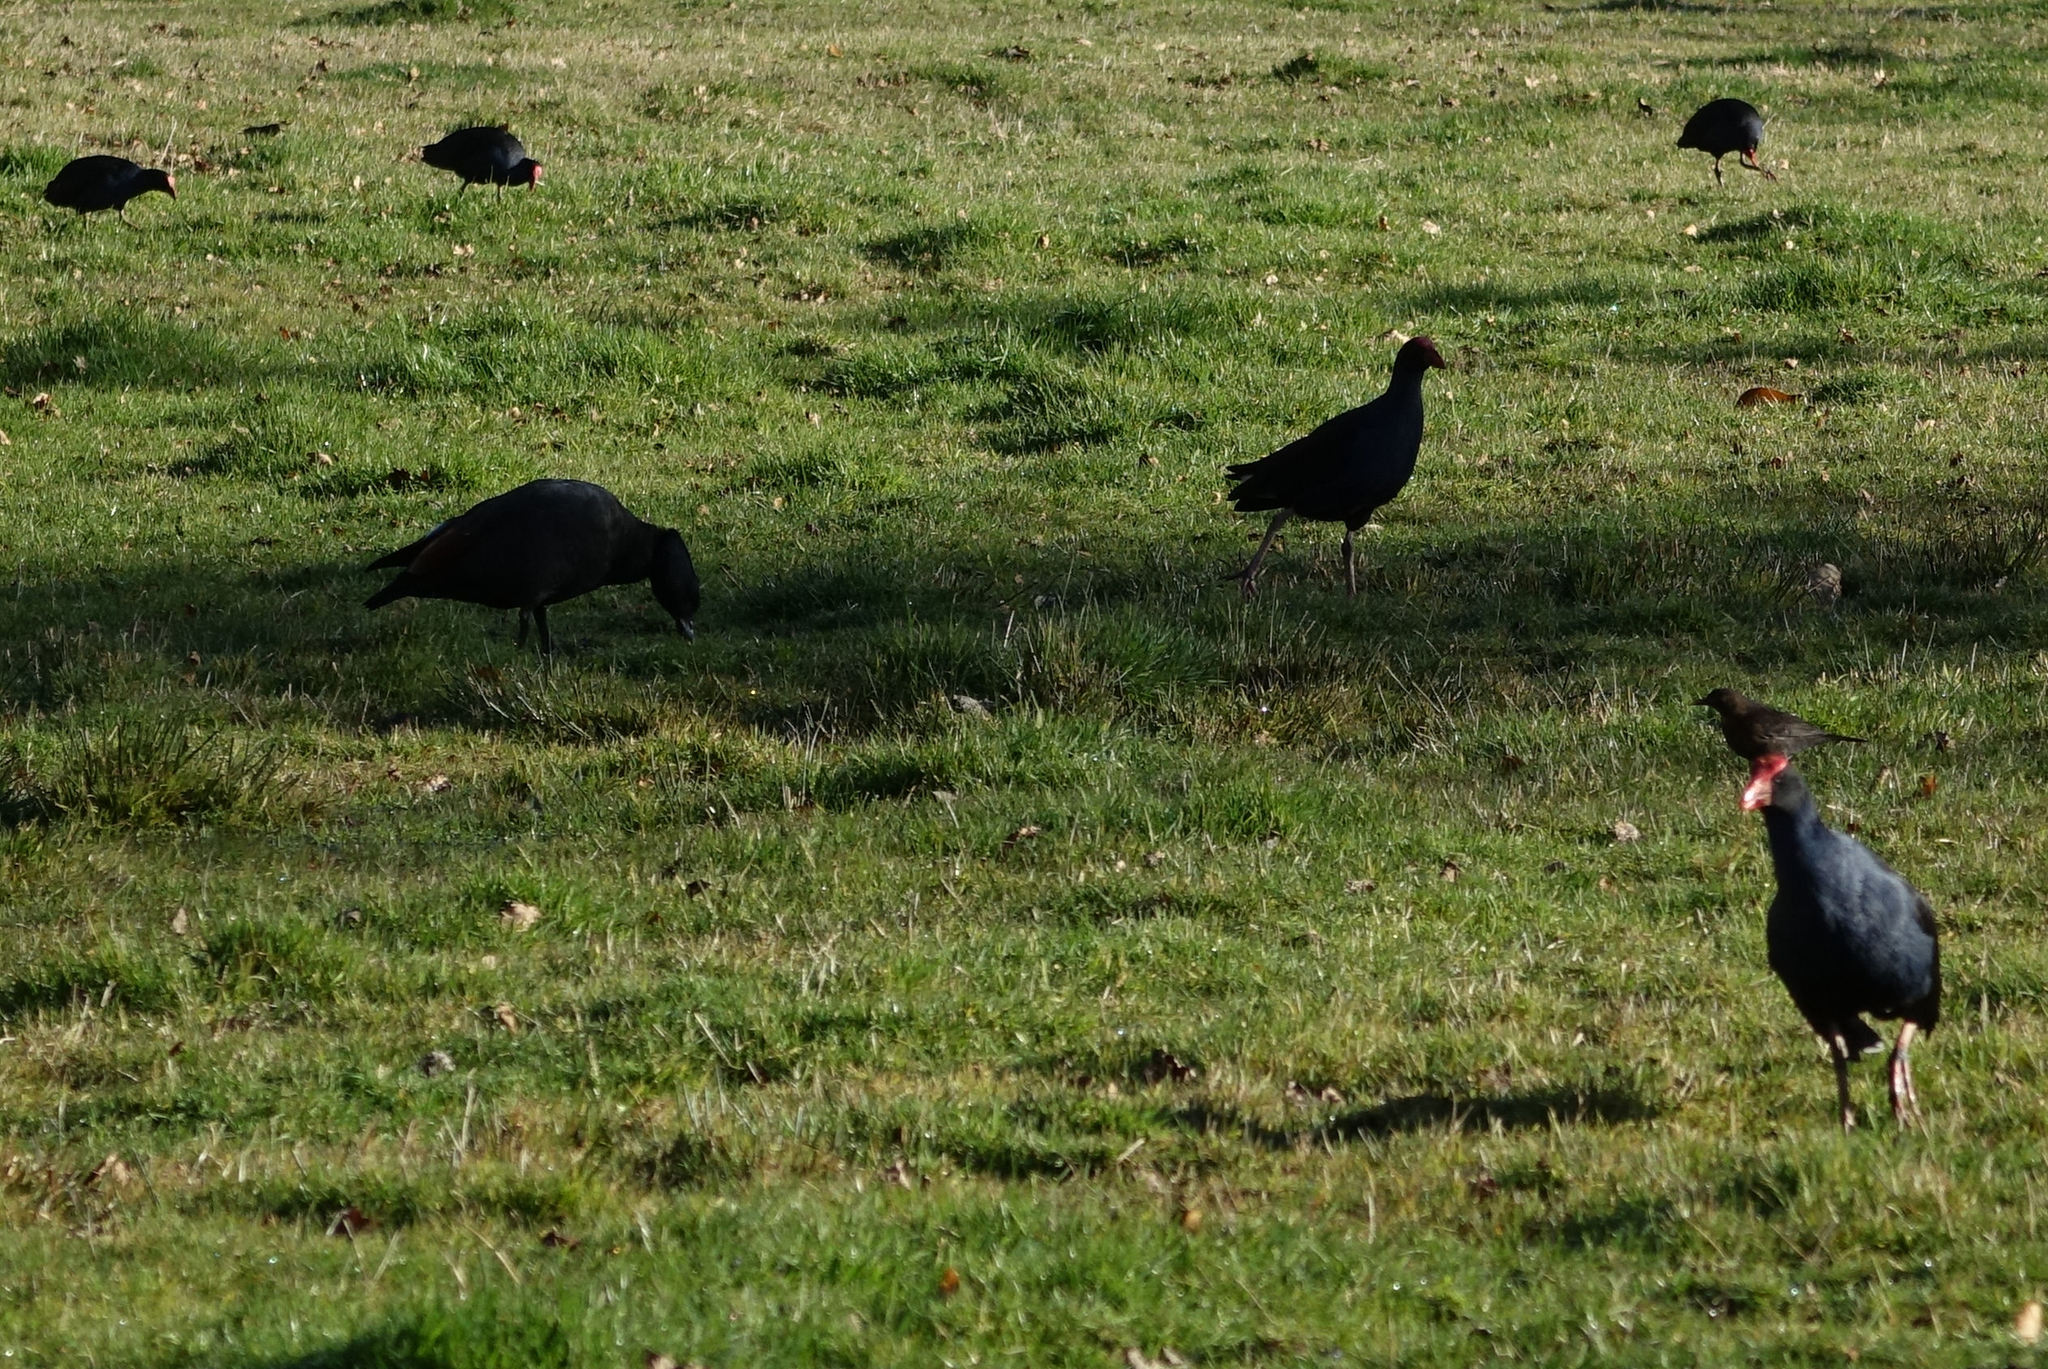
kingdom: Animalia
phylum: Chordata
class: Aves
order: Gruiformes
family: Rallidae
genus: Porphyrio
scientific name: Porphyrio melanotus
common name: Australasian swamphen
